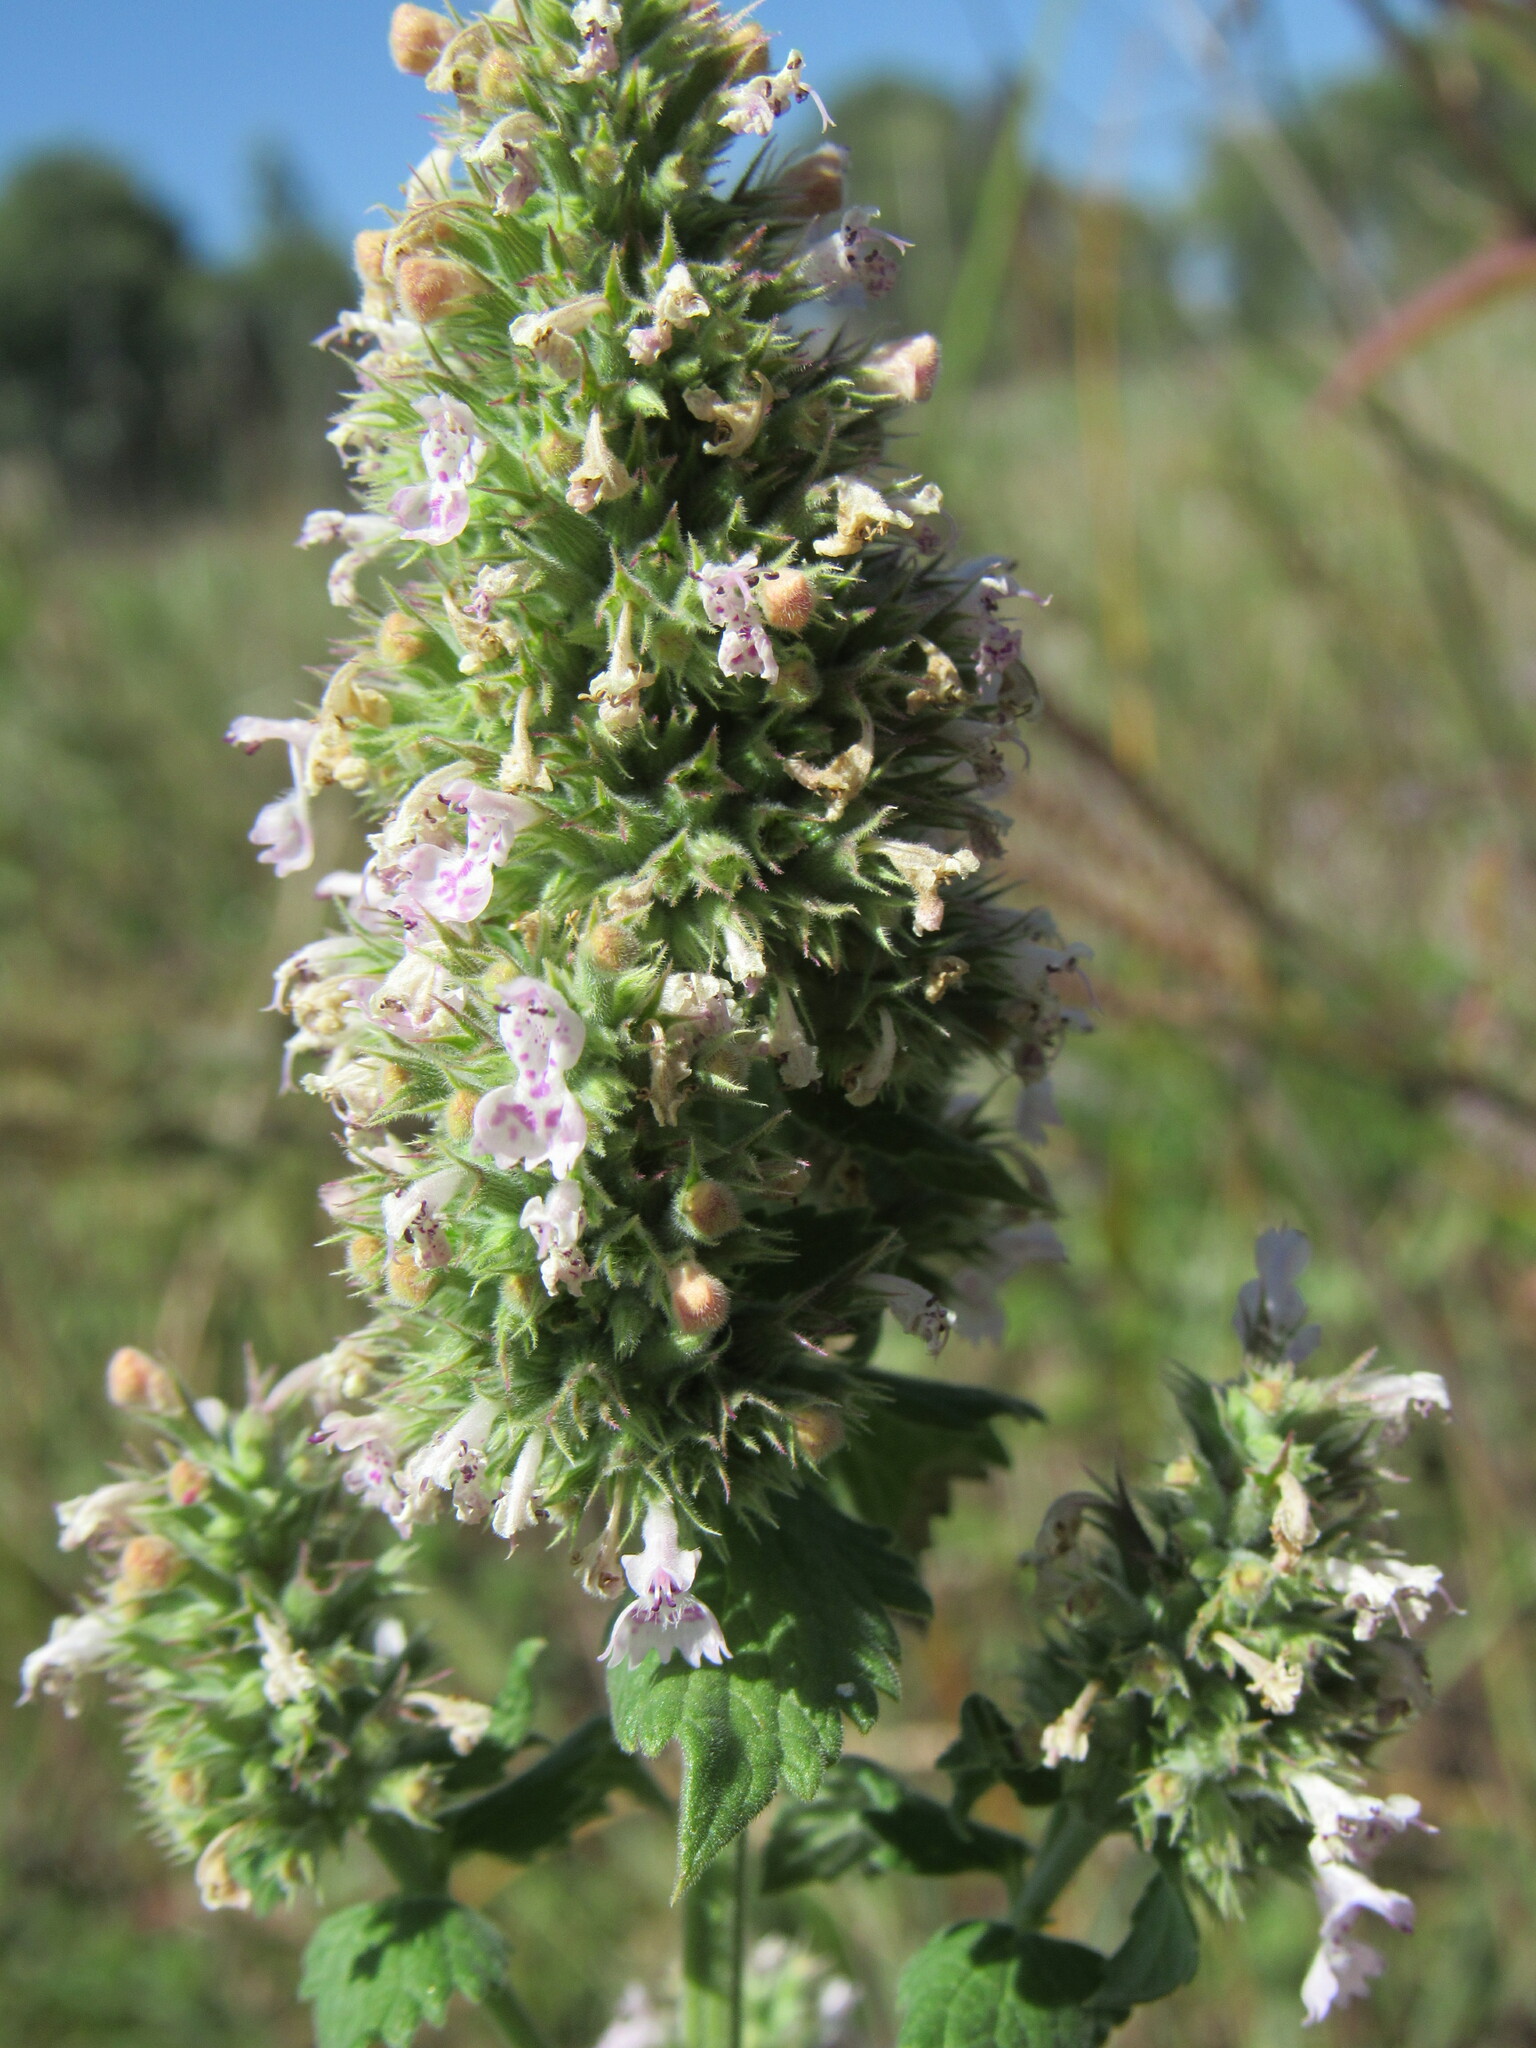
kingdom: Plantae
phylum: Tracheophyta
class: Magnoliopsida
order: Lamiales
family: Lamiaceae
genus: Nepeta
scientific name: Nepeta cataria
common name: Catnip
